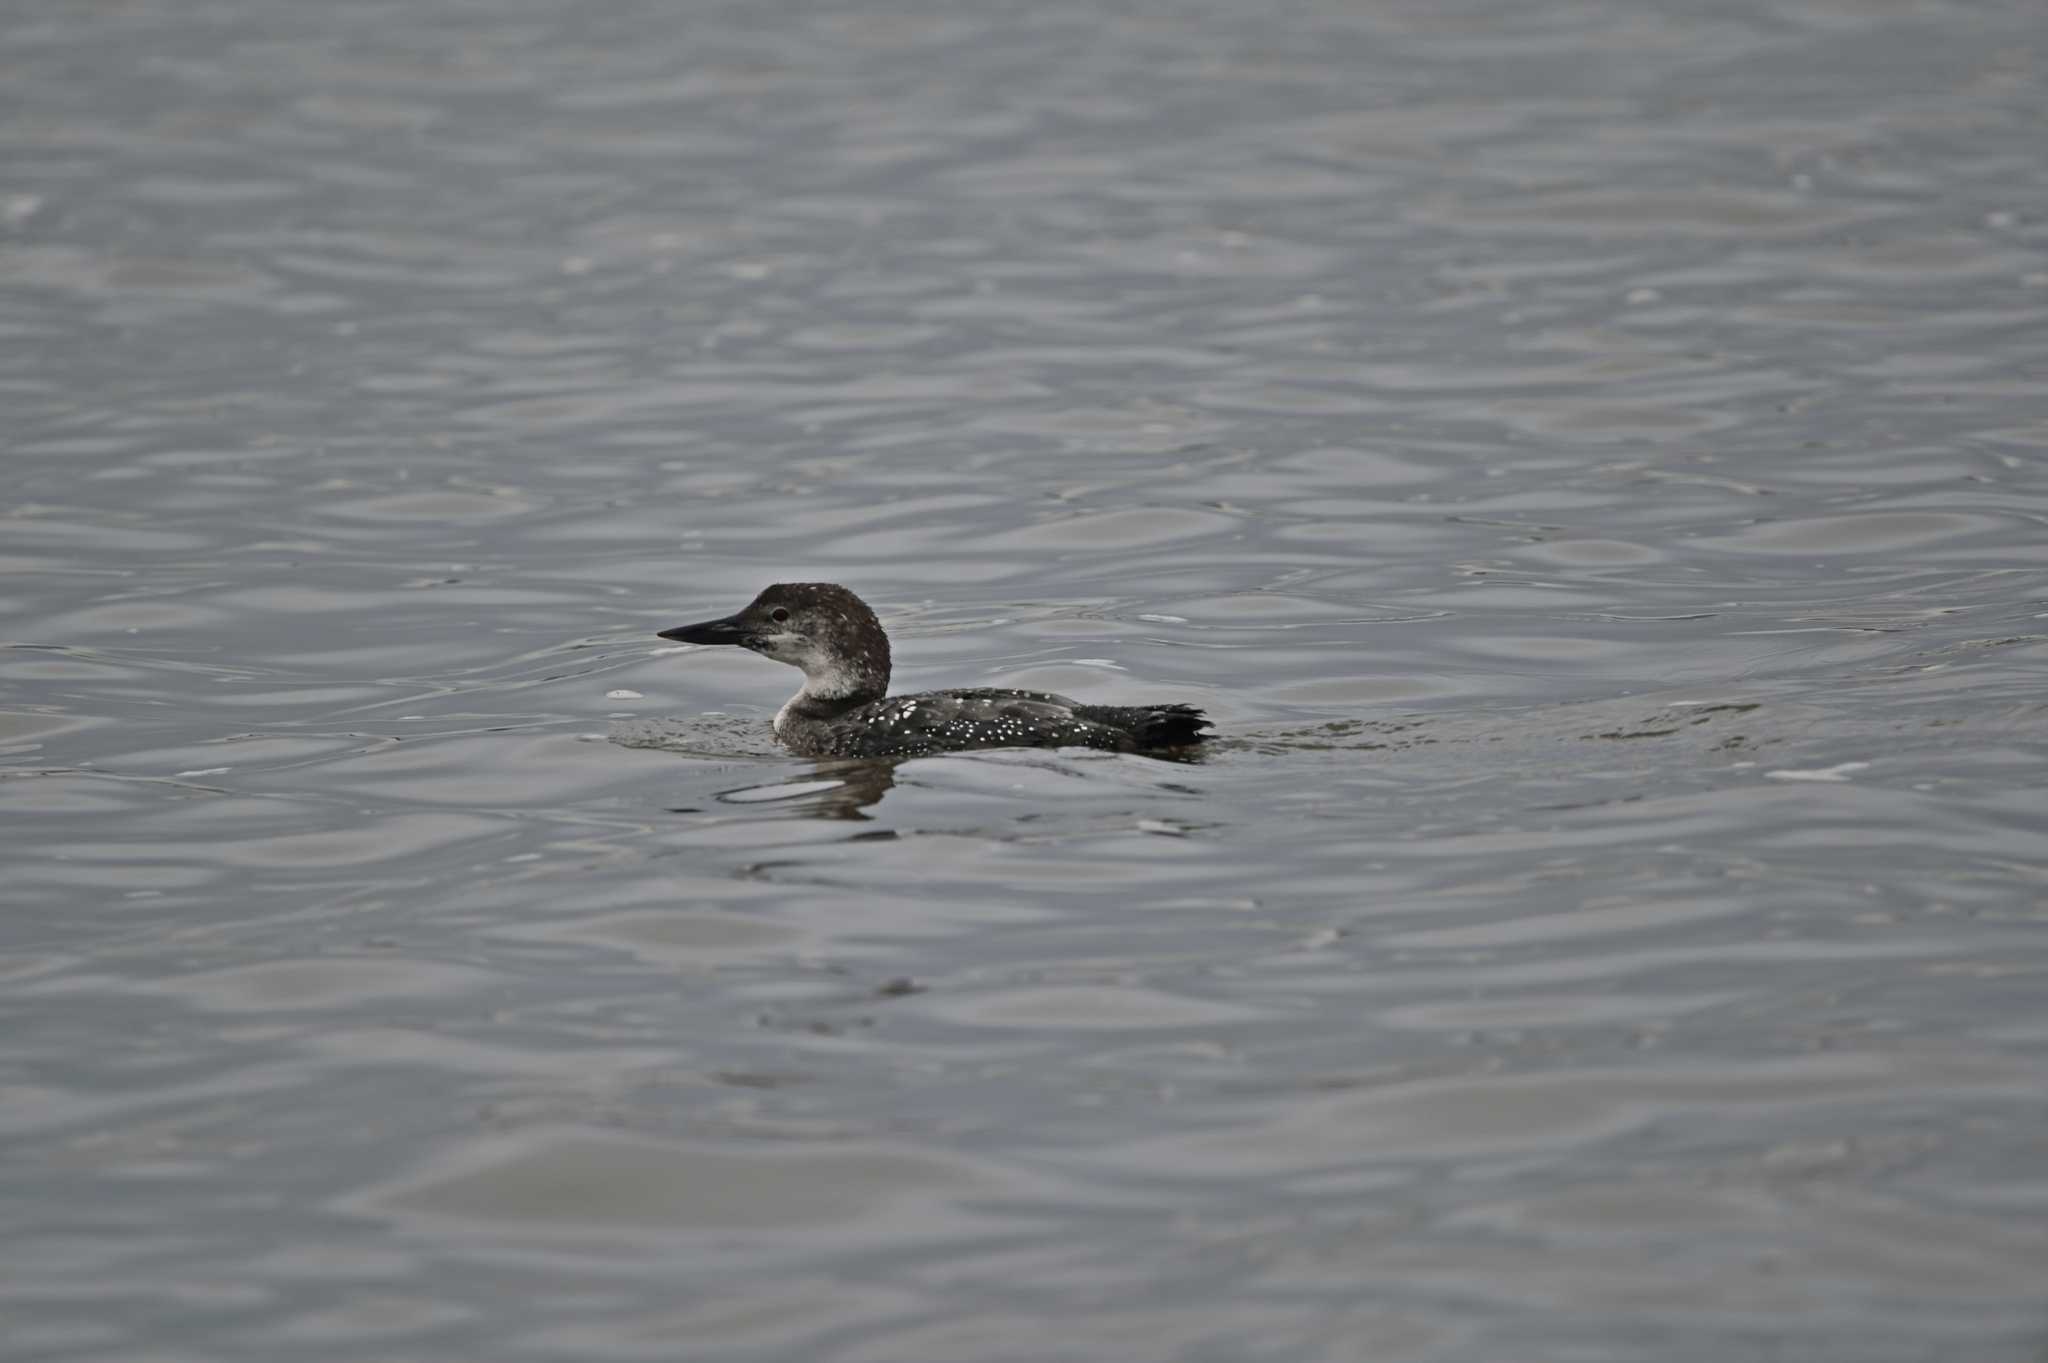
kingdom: Animalia
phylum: Chordata
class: Aves
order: Gaviiformes
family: Gaviidae
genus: Gavia
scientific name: Gavia immer
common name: Common loon
